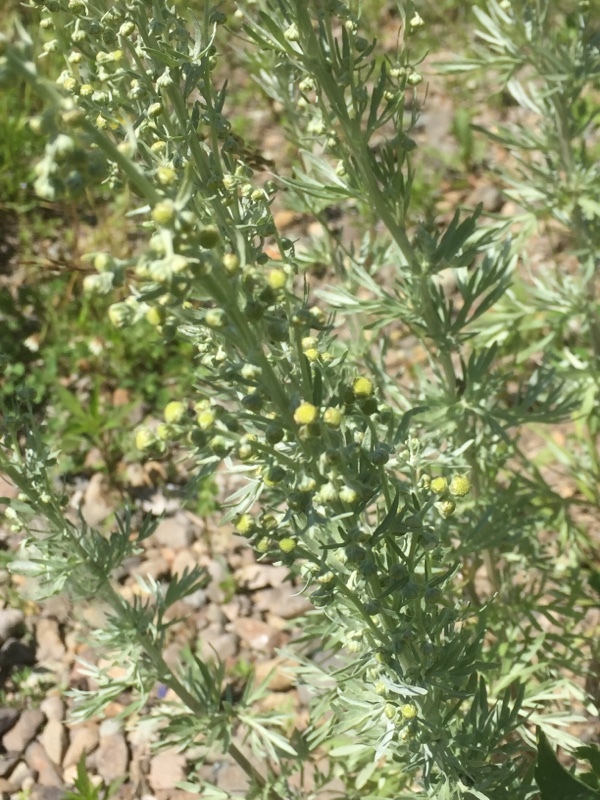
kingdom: Plantae
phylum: Tracheophyta
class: Magnoliopsida
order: Asterales
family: Asteraceae
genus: Artemisia
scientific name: Artemisia absinthium
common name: Wormwood
